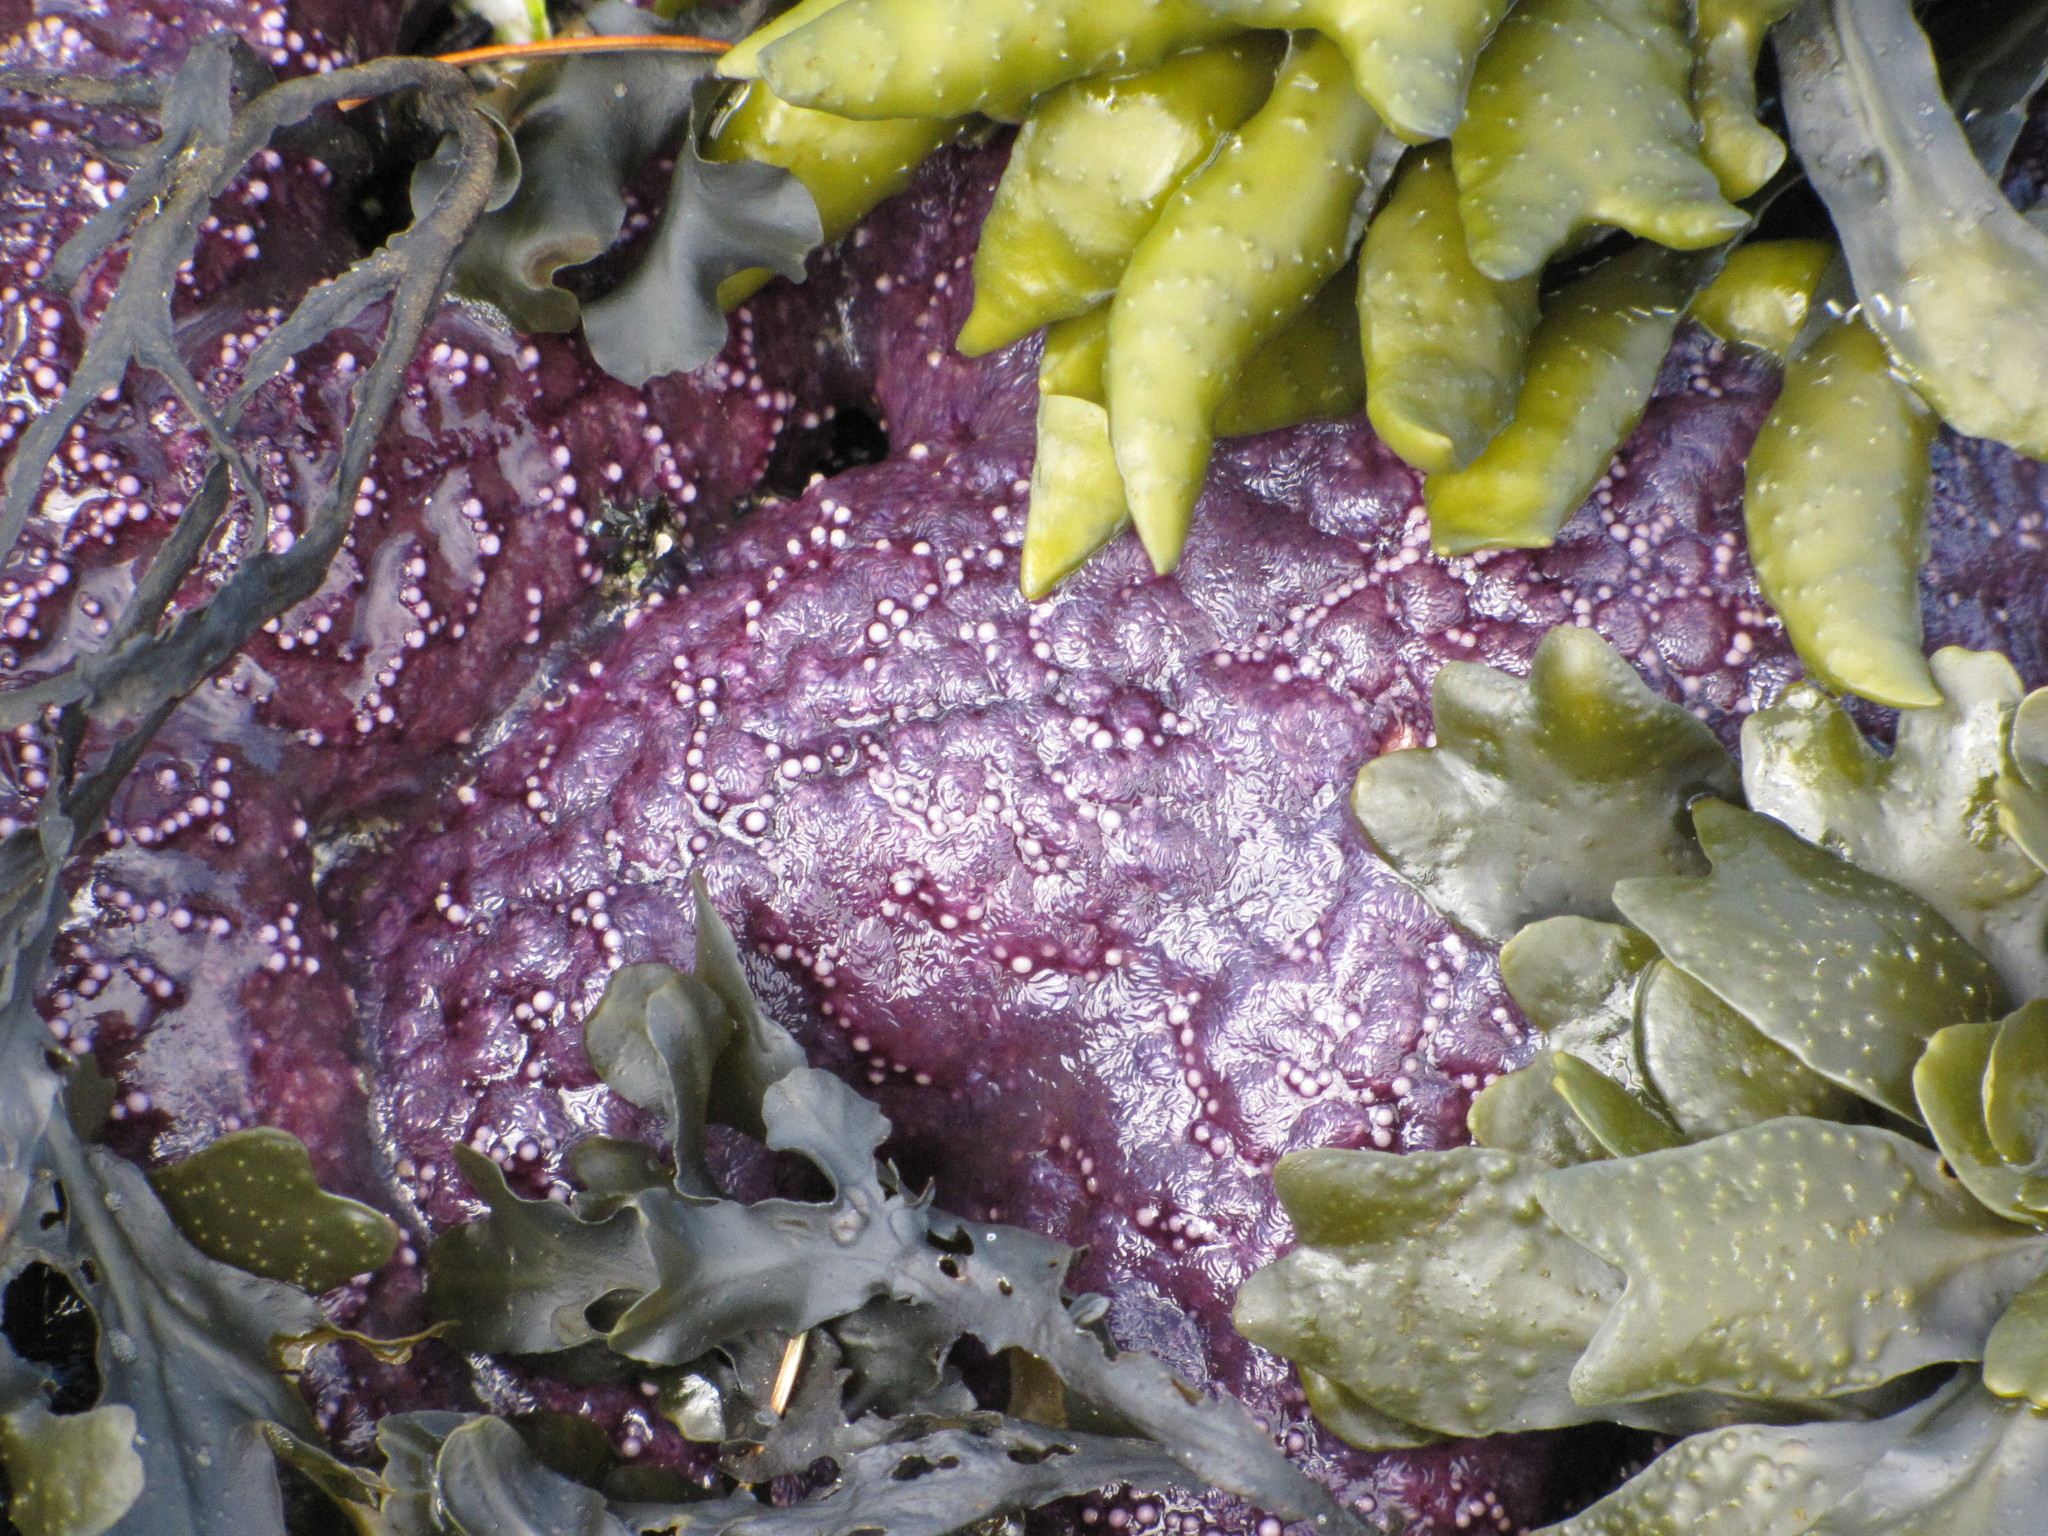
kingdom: Animalia
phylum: Echinodermata
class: Asteroidea
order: Forcipulatida
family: Asteriidae
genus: Pisaster
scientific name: Pisaster ochraceus
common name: Ochre stars
